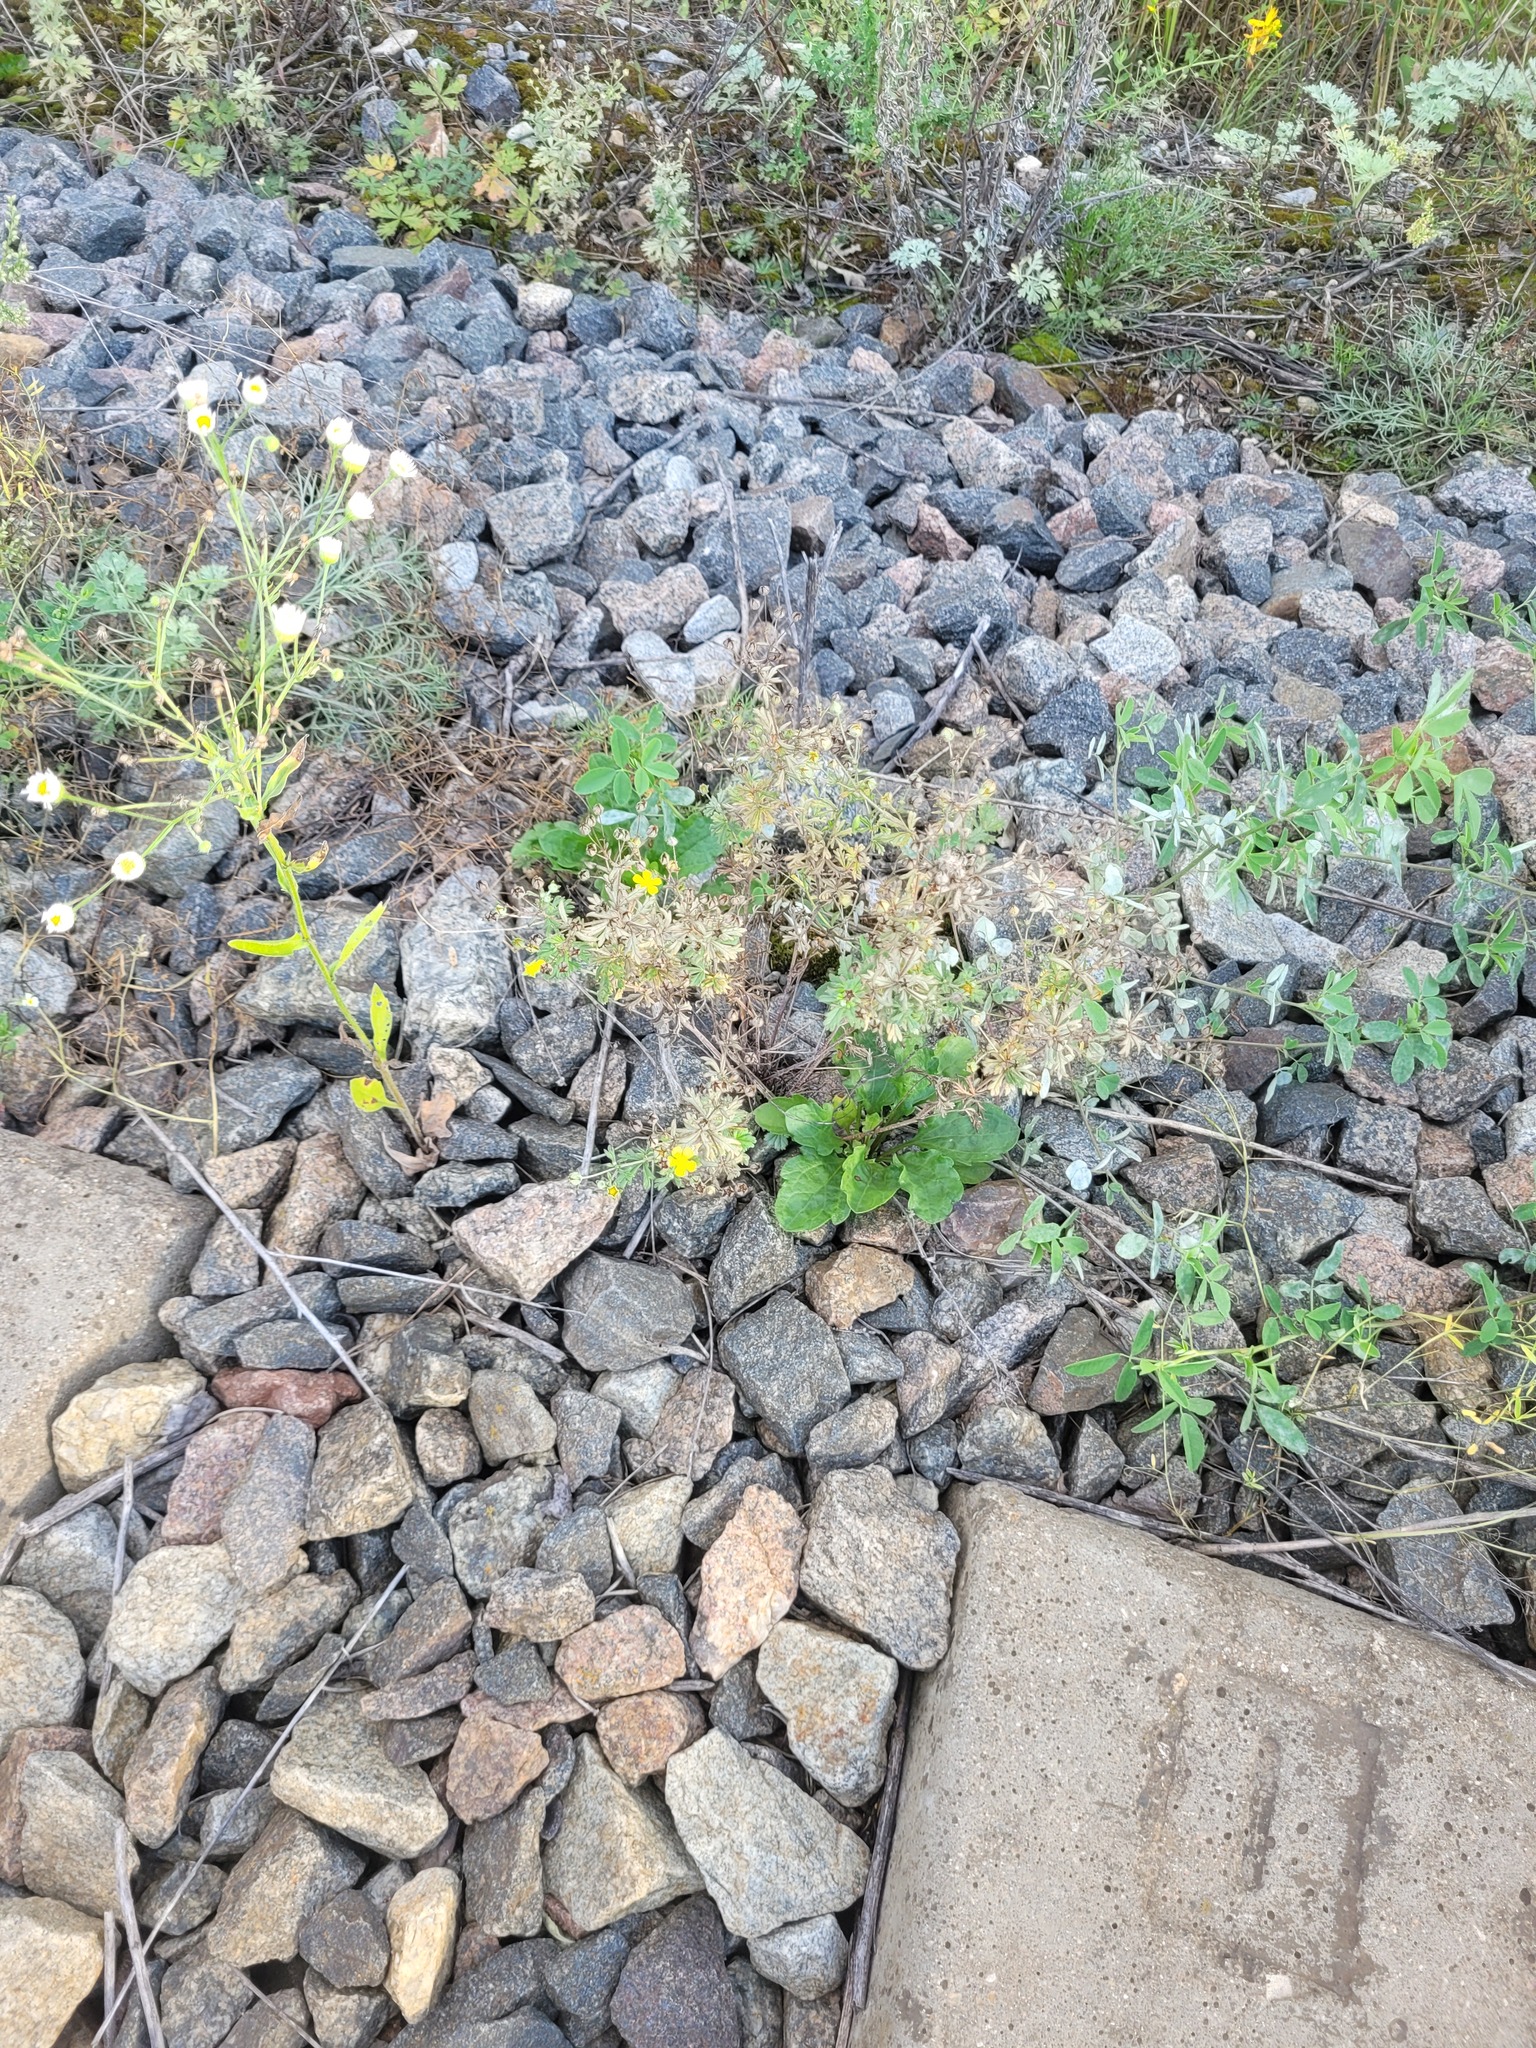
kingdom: Plantae
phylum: Tracheophyta
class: Magnoliopsida
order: Rosales
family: Rosaceae
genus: Potentilla
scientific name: Potentilla argentea
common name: Hoary cinquefoil
